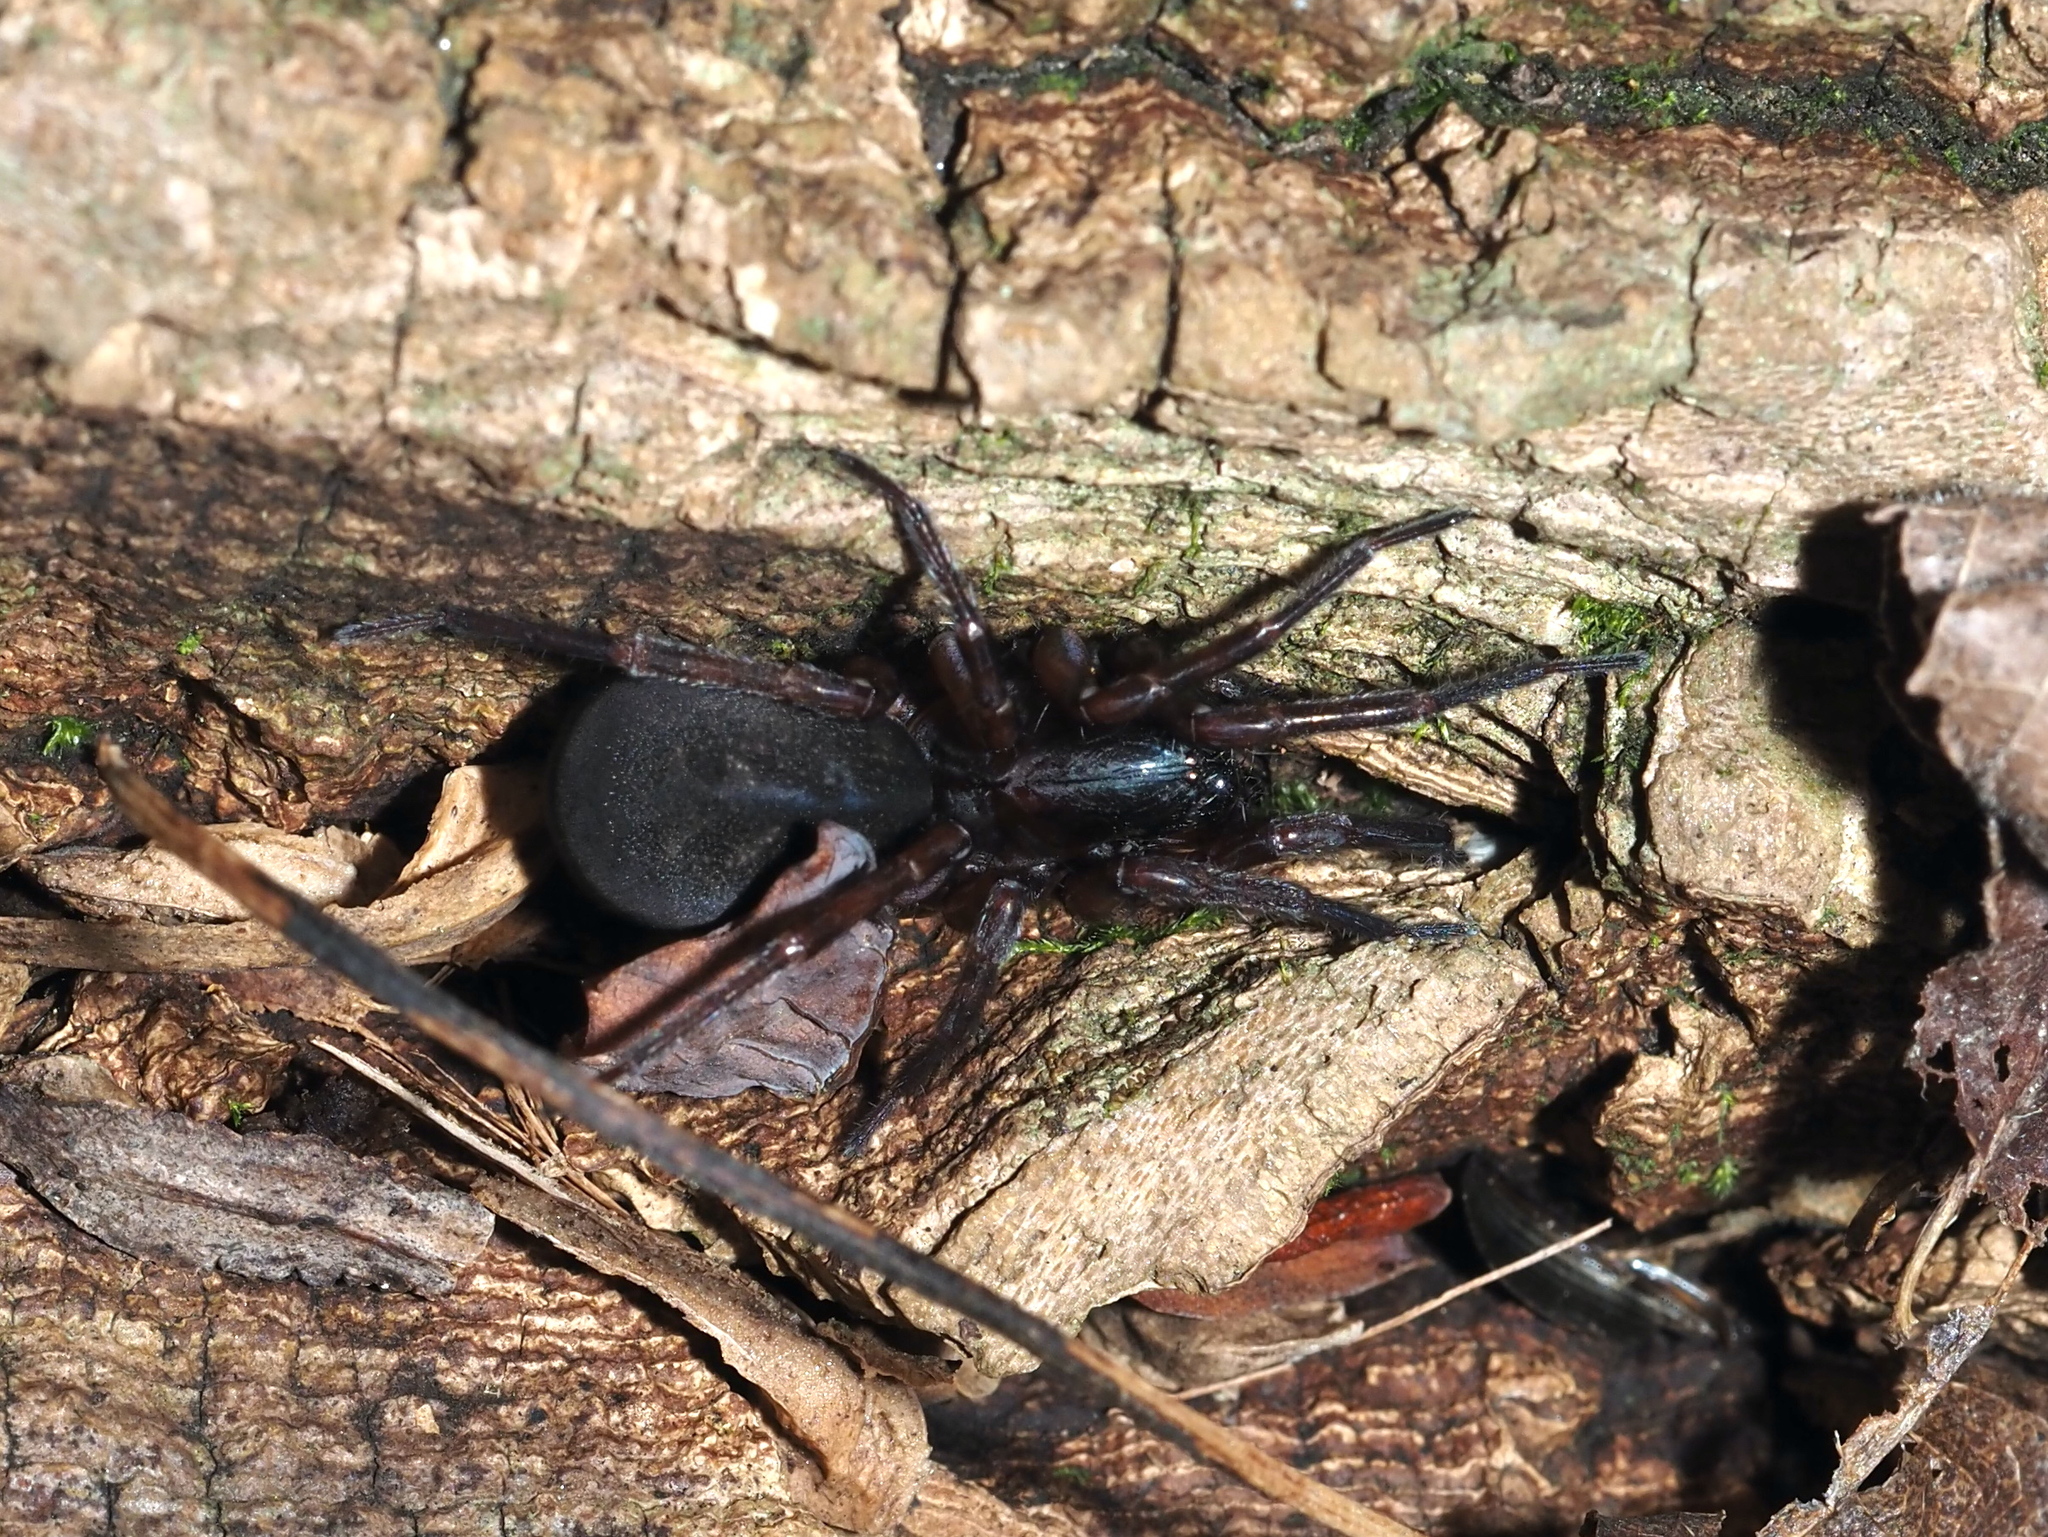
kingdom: Animalia
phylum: Arthropoda
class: Arachnida
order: Araneae
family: Agelenidae
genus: Wadotes
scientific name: Wadotes
